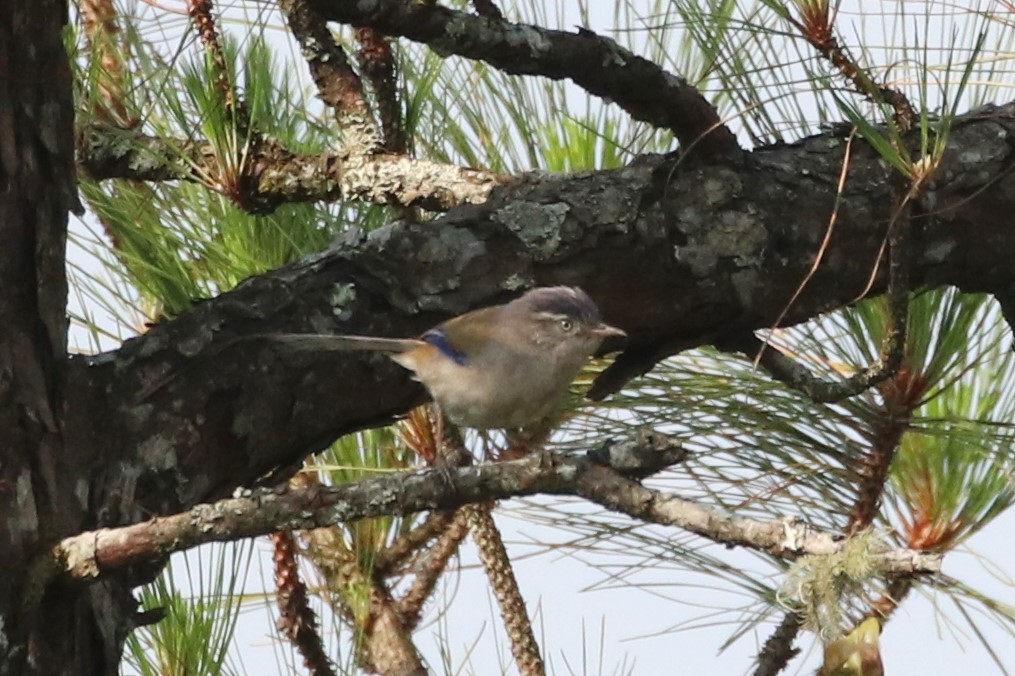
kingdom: Animalia
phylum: Chordata
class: Aves
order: Passeriformes
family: Leiothrichidae
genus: Minla
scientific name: Minla cyanouroptera
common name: Blue-winged minla
